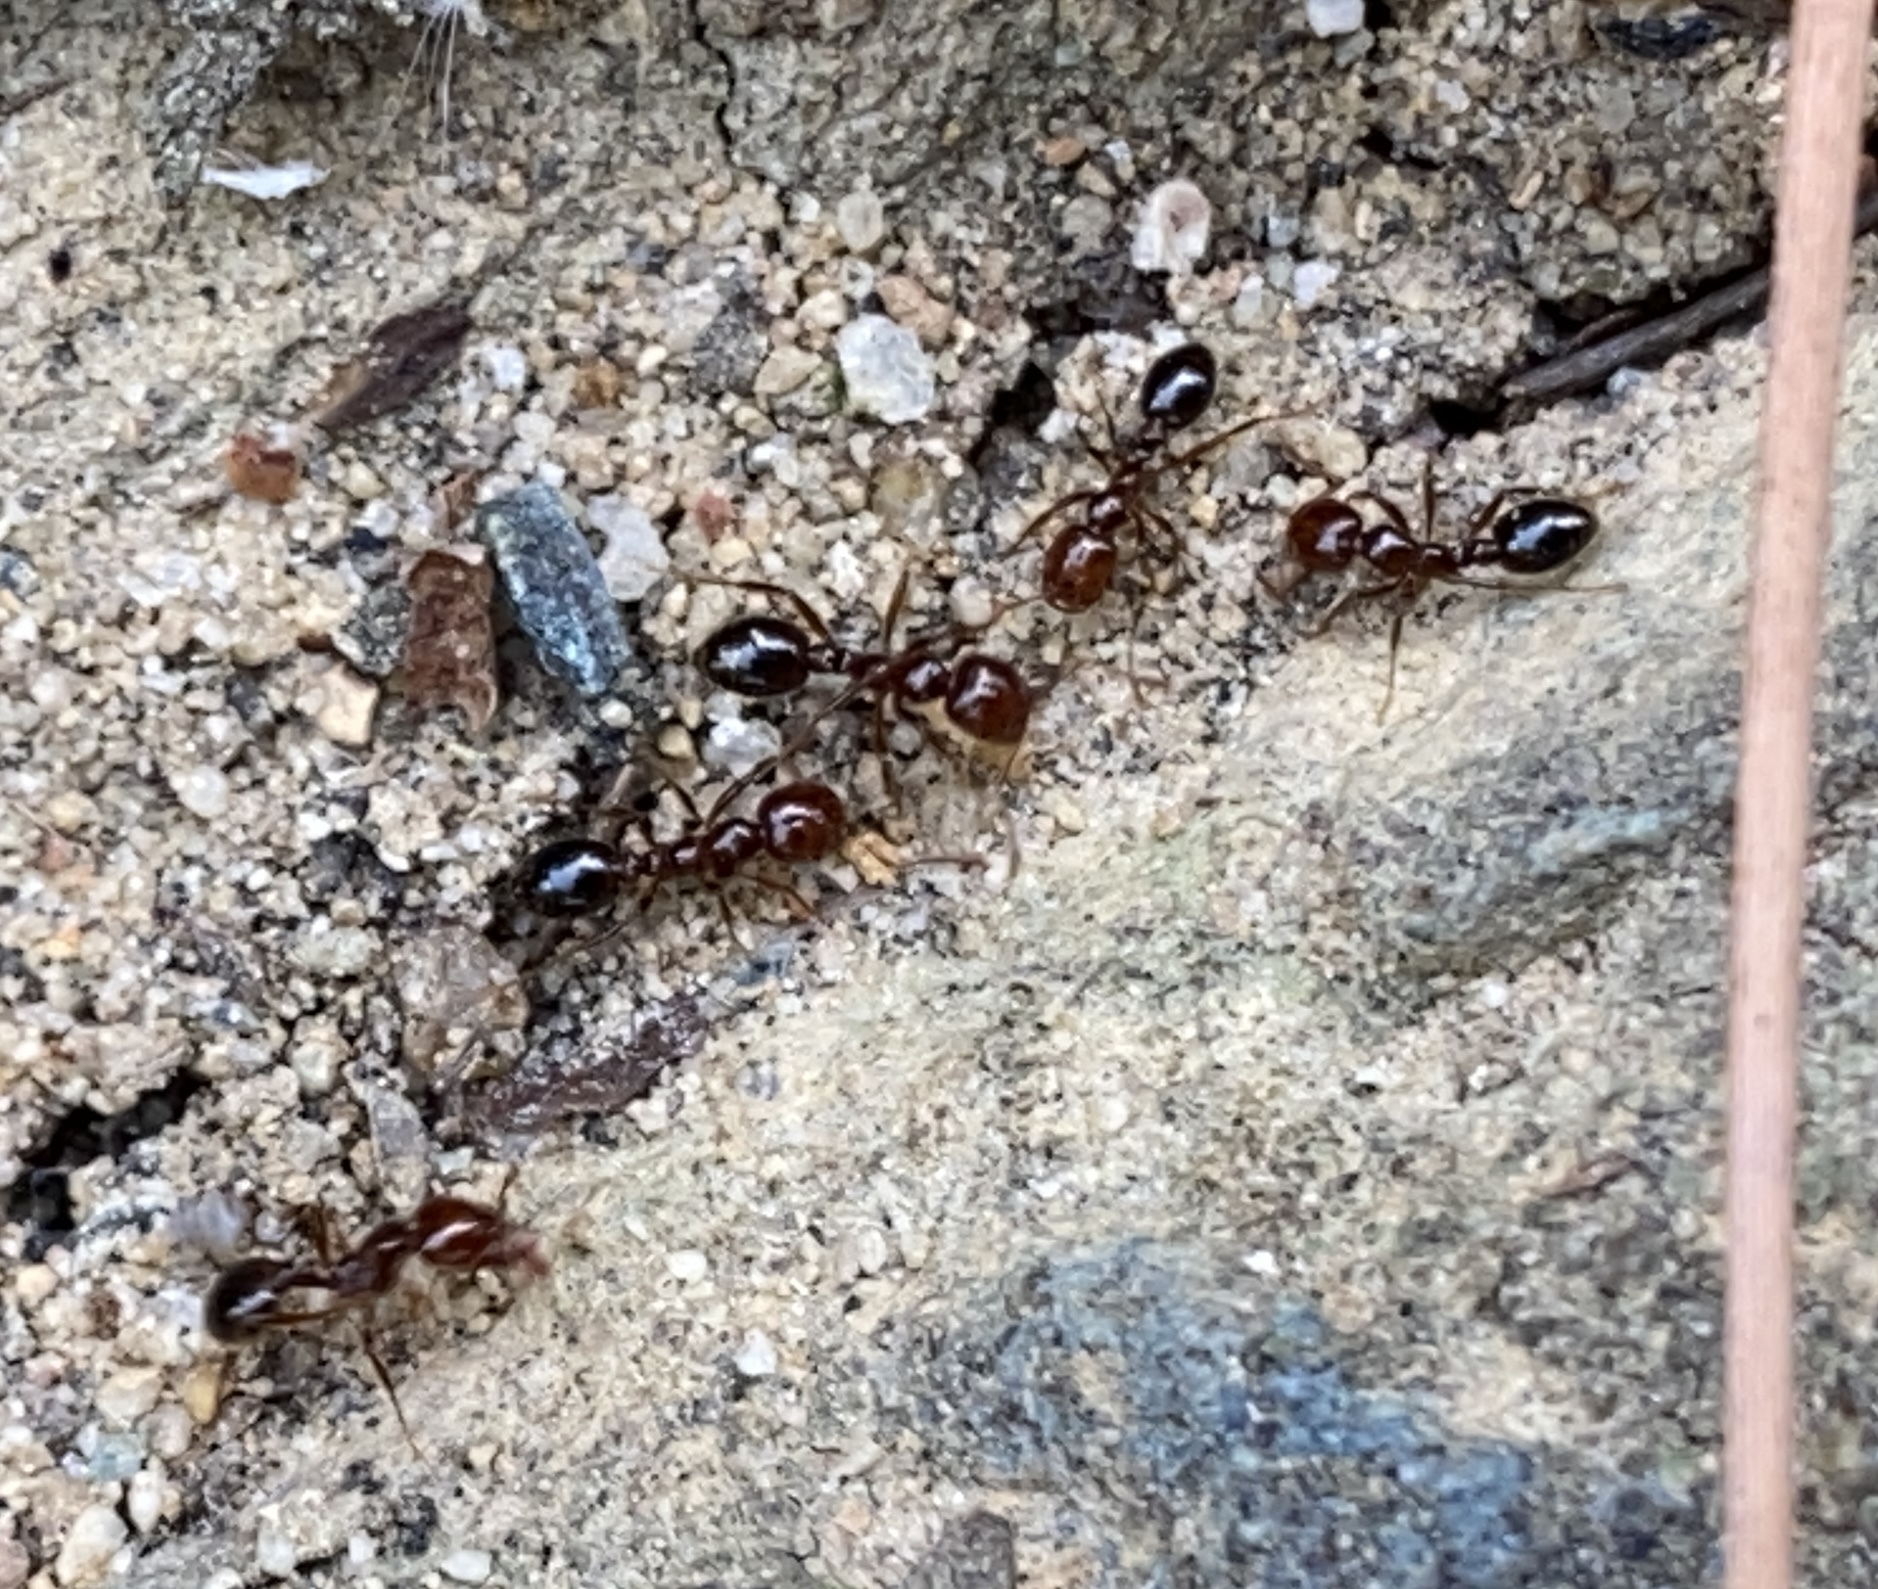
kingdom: Animalia
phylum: Arthropoda
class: Insecta
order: Hymenoptera
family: Formicidae
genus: Solenopsis
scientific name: Solenopsis invicta
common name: Red imported fire ant
